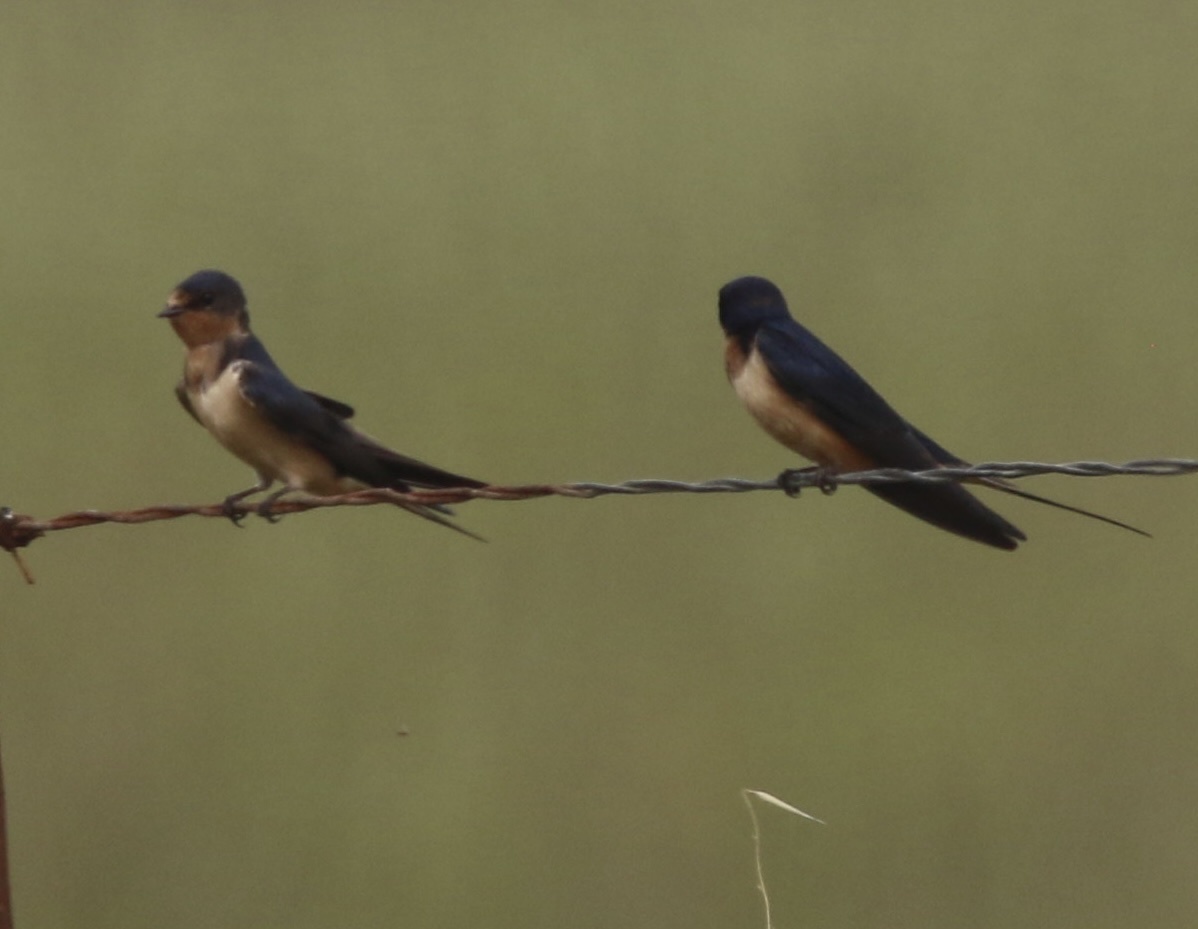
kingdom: Animalia
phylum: Chordata
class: Aves
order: Passeriformes
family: Hirundinidae
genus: Hirundo
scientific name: Hirundo rustica
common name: Barn swallow
